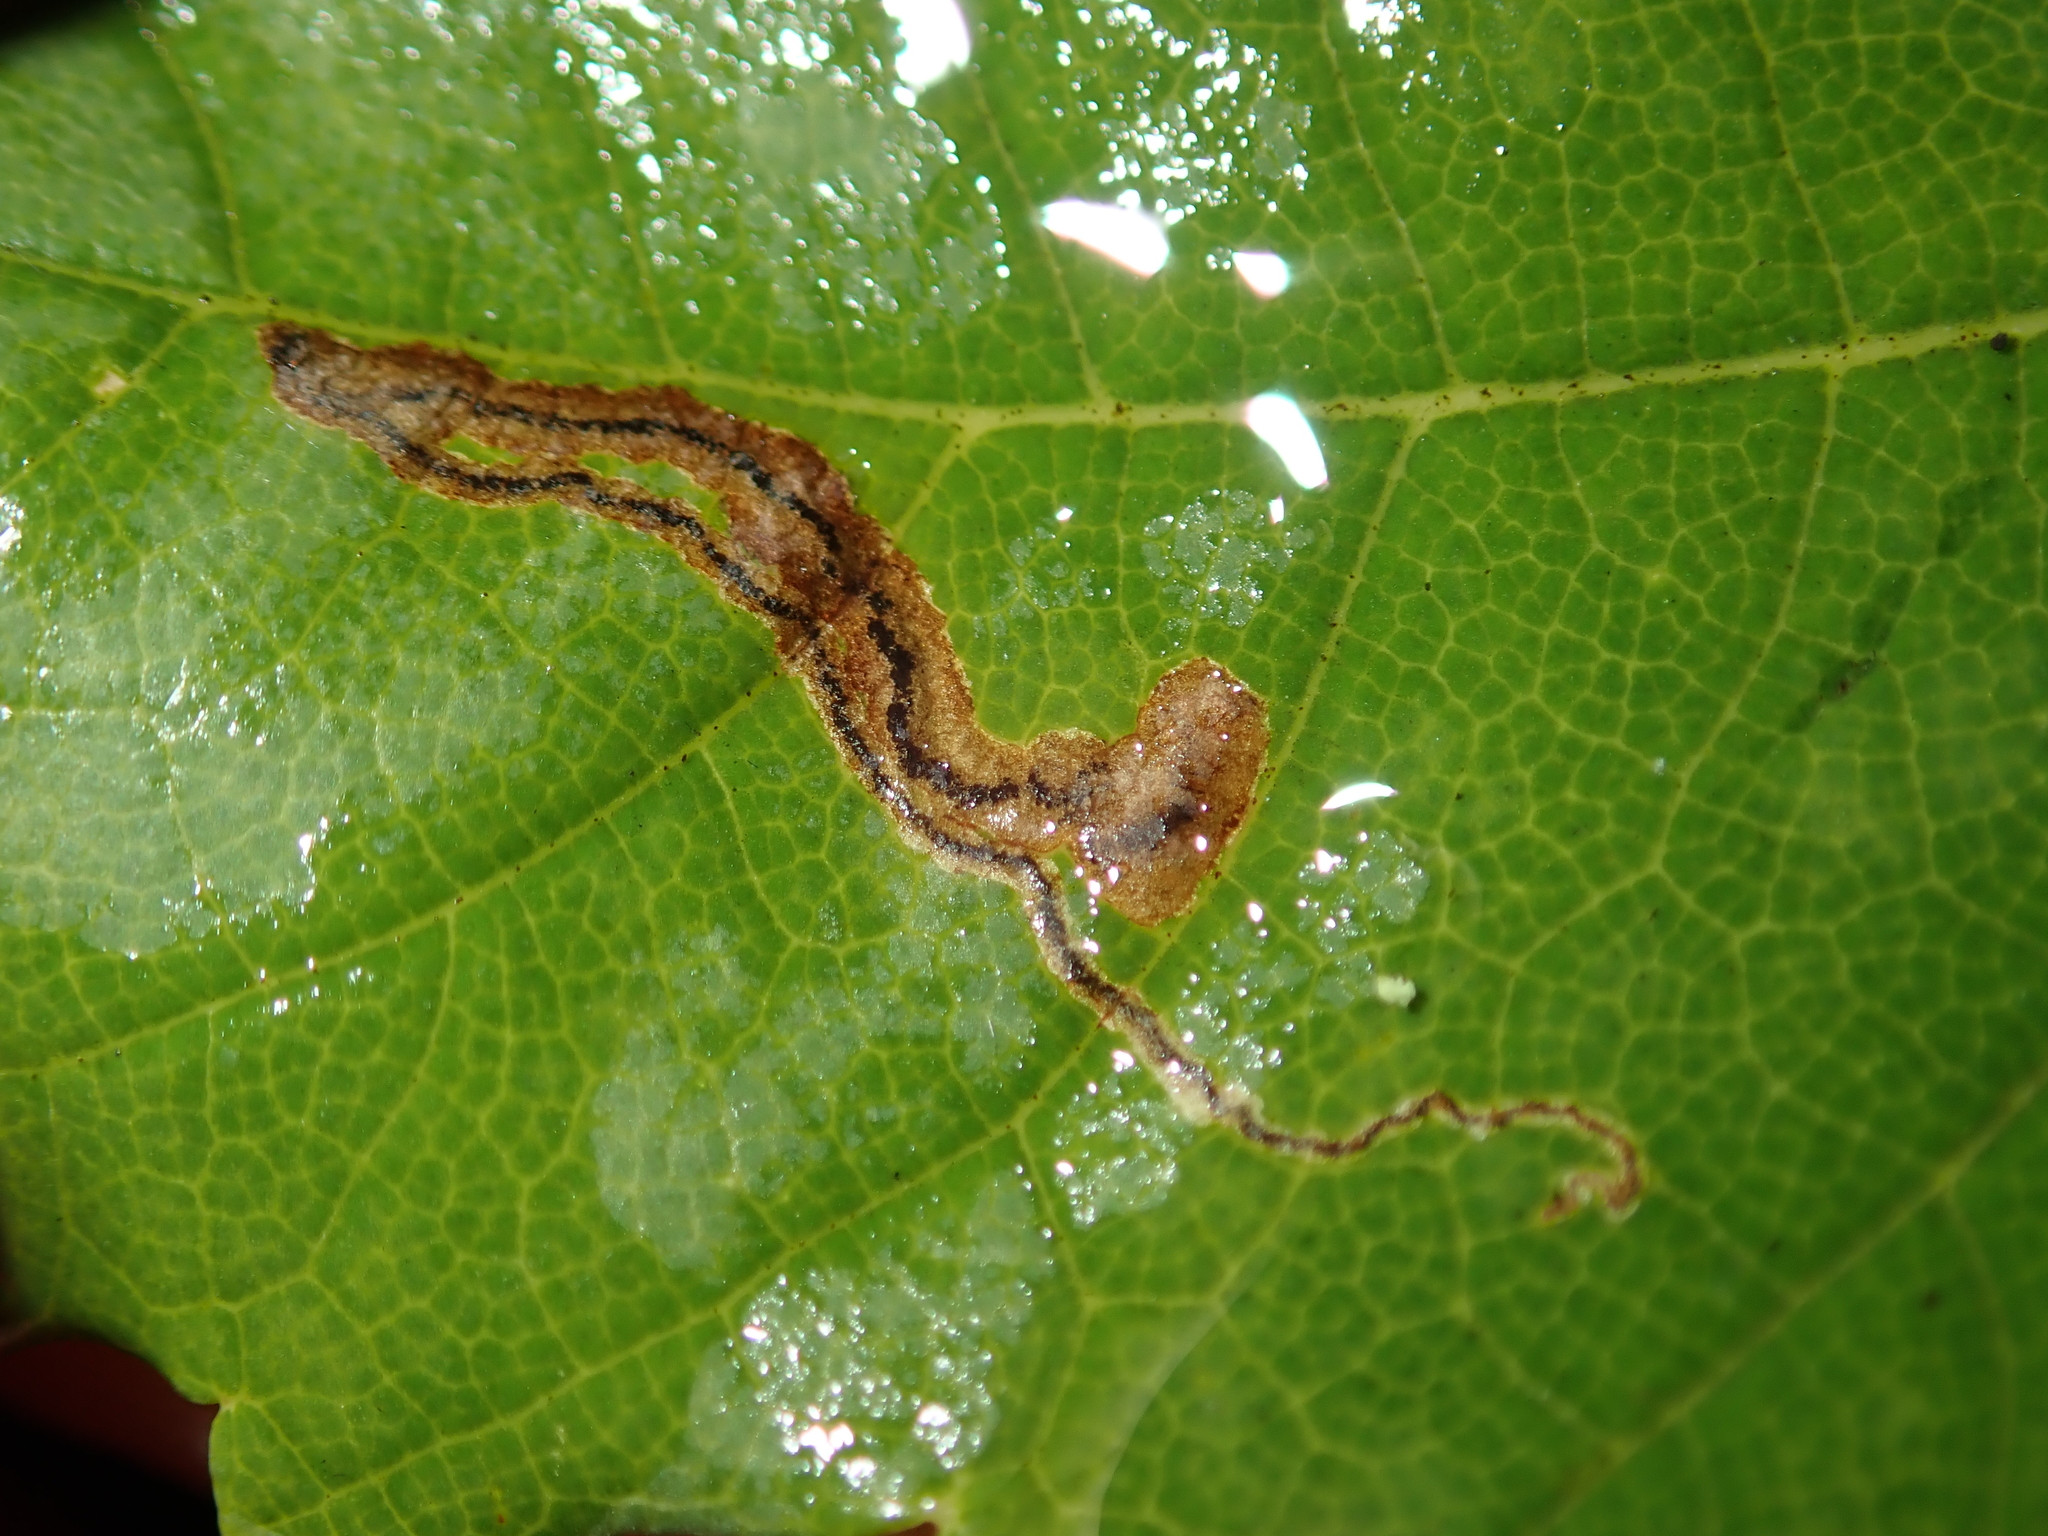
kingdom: Animalia
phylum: Arthropoda
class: Insecta
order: Lepidoptera
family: Nepticulidae
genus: Stigmella
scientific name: Stigmella speciosa
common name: Barred sycamore pigmy
